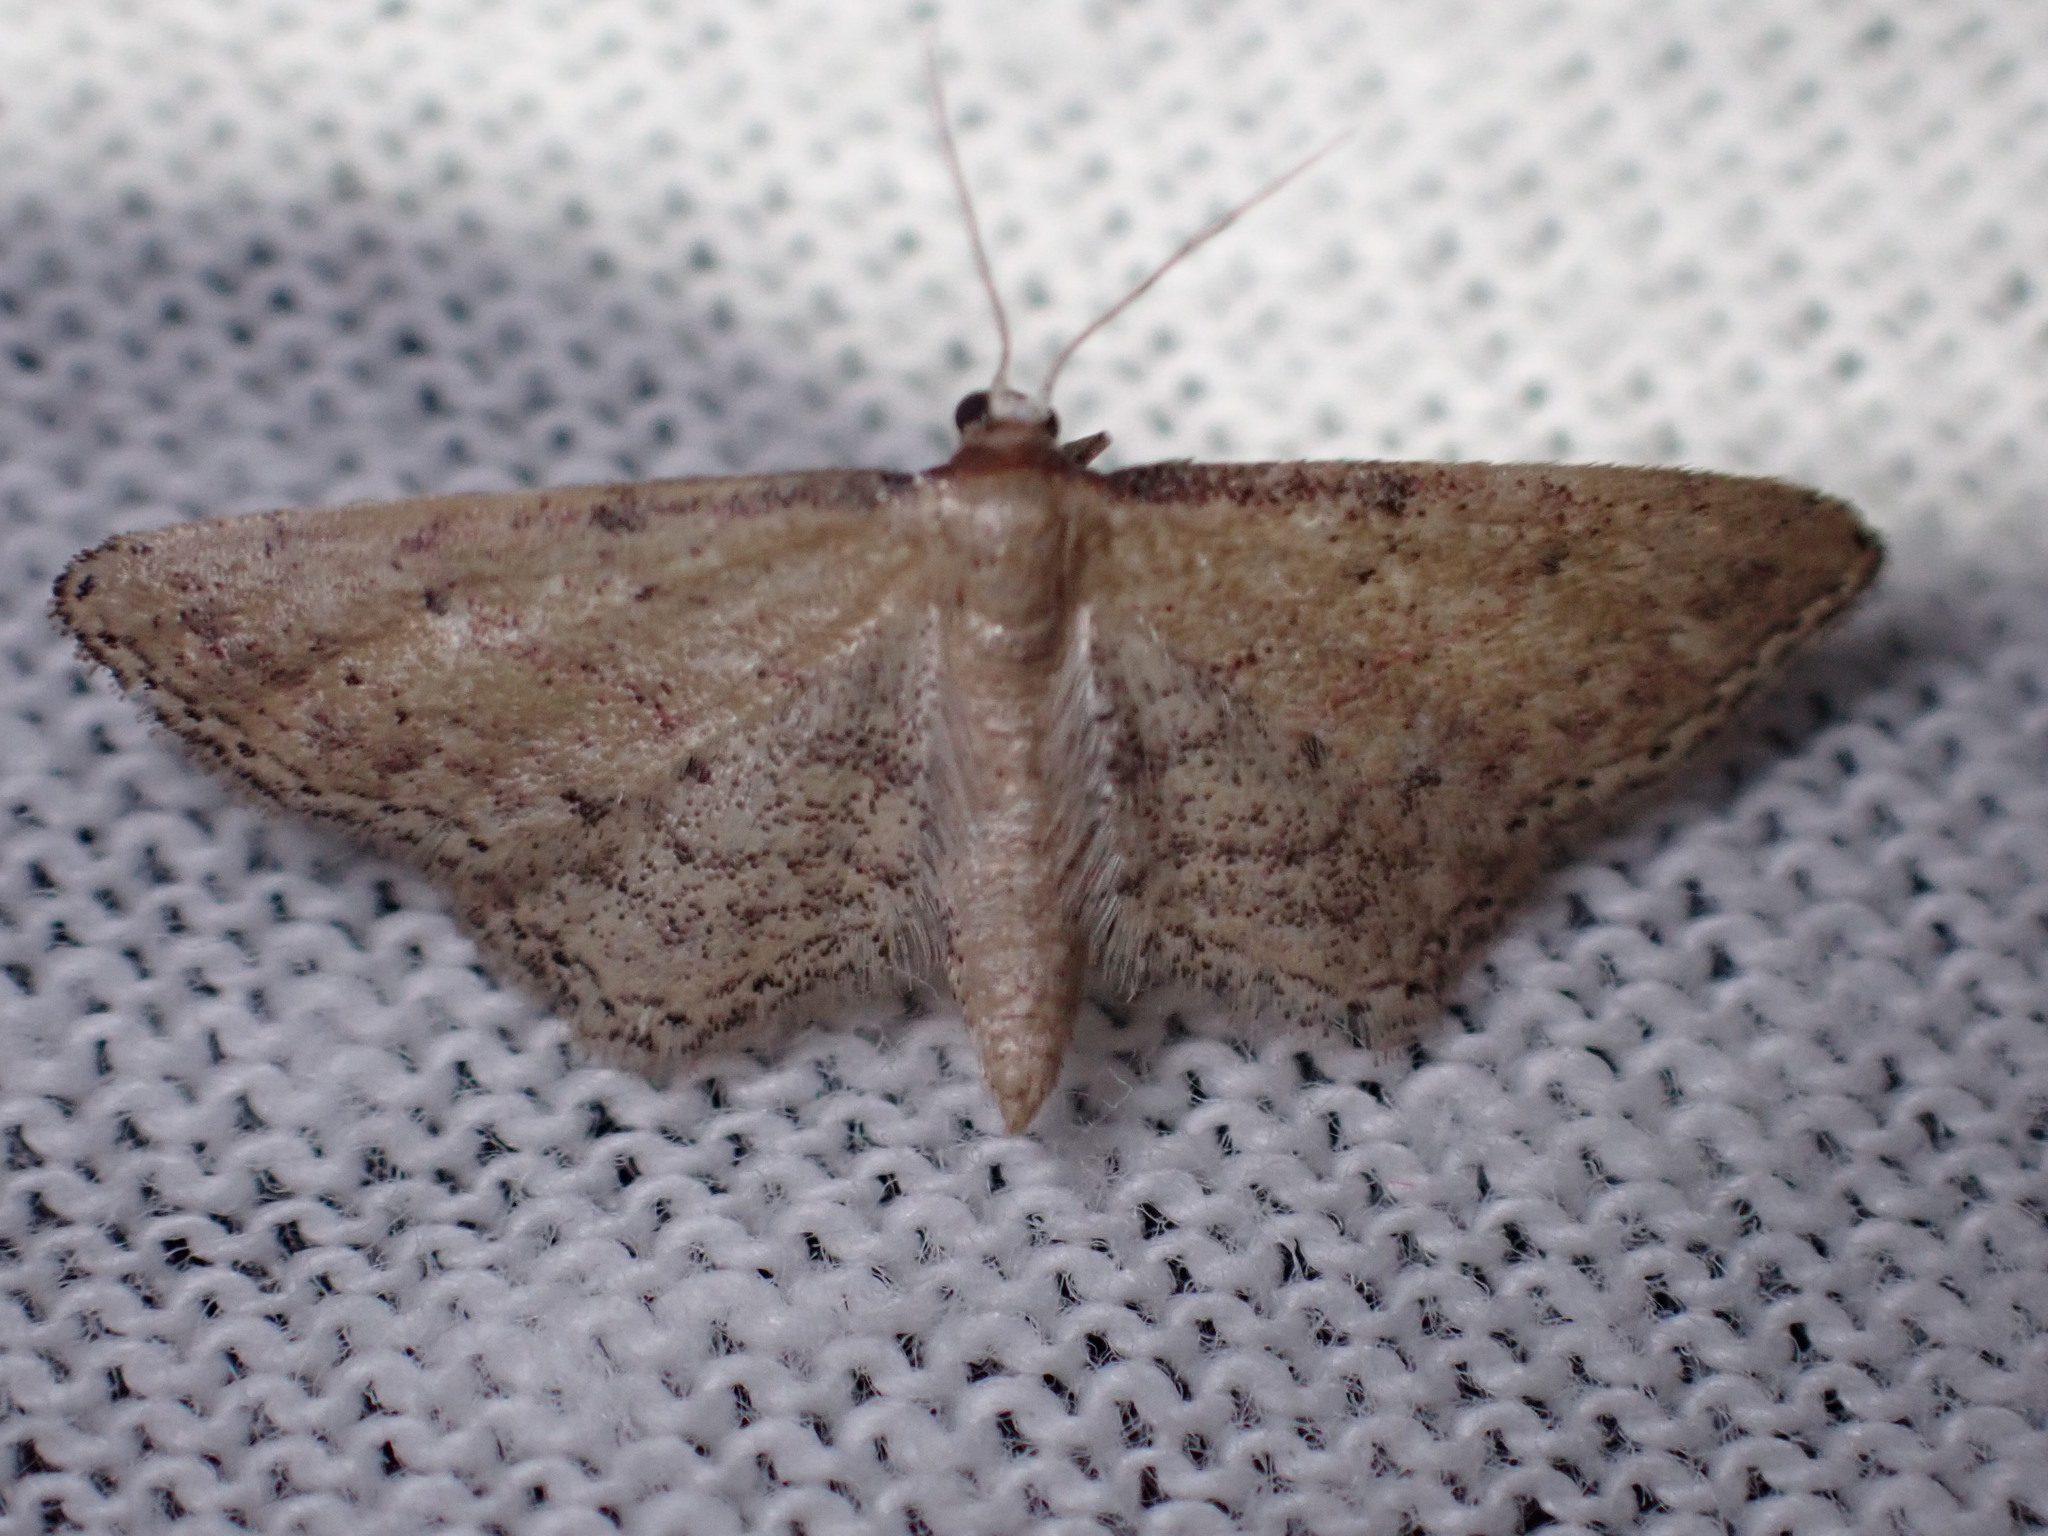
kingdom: Animalia
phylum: Arthropoda
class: Insecta
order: Lepidoptera
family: Geometridae
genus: Idaea
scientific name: Idaea infirmaria
